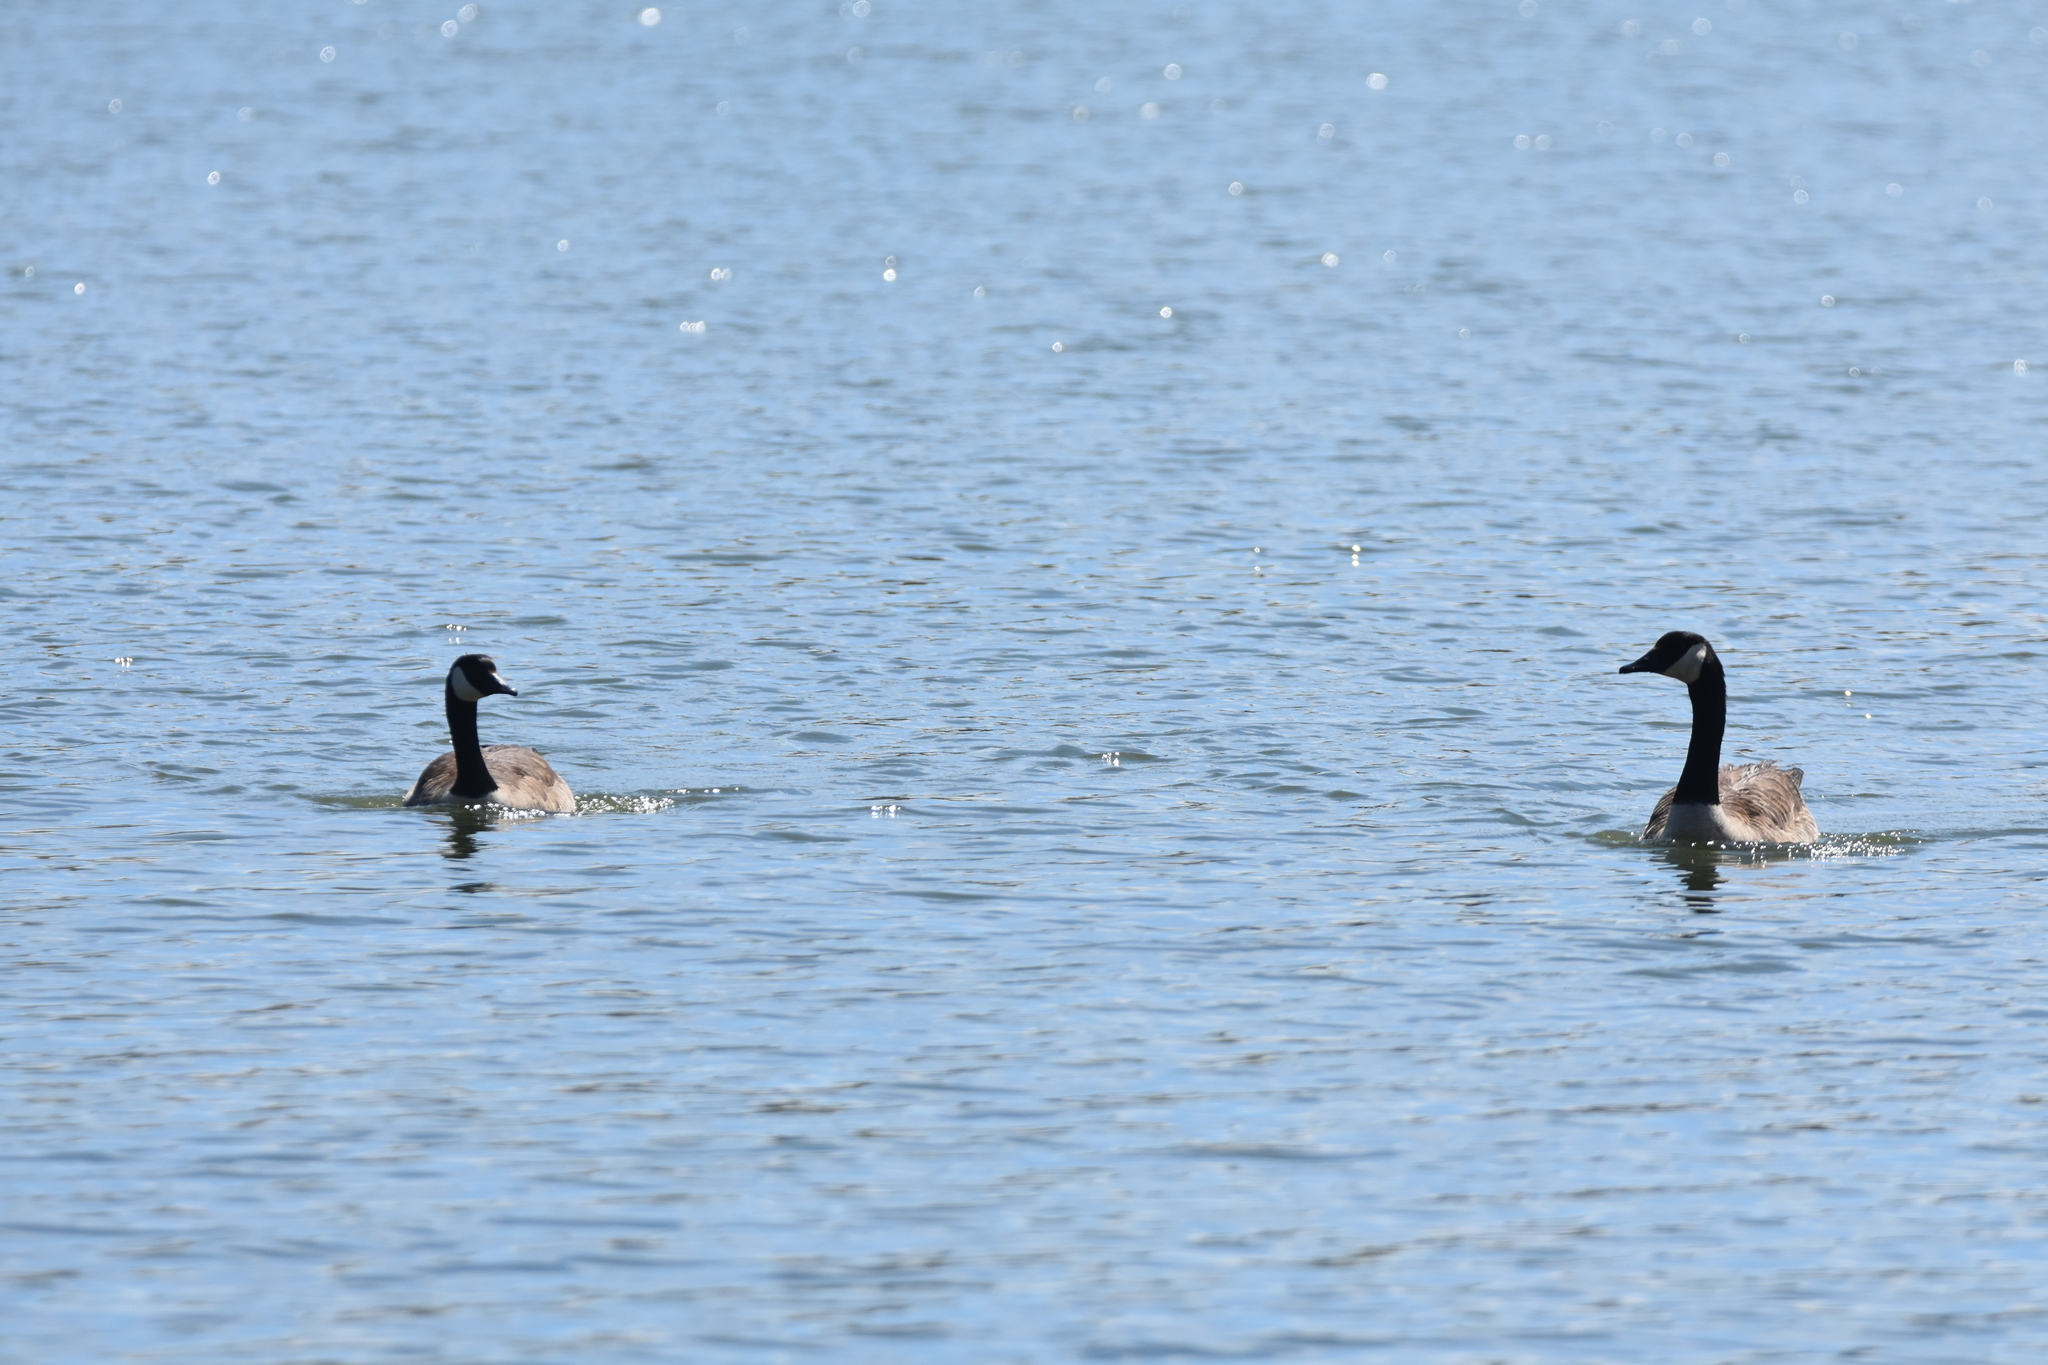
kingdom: Animalia
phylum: Chordata
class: Aves
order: Anseriformes
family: Anatidae
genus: Branta
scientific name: Branta canadensis
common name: Canada goose
